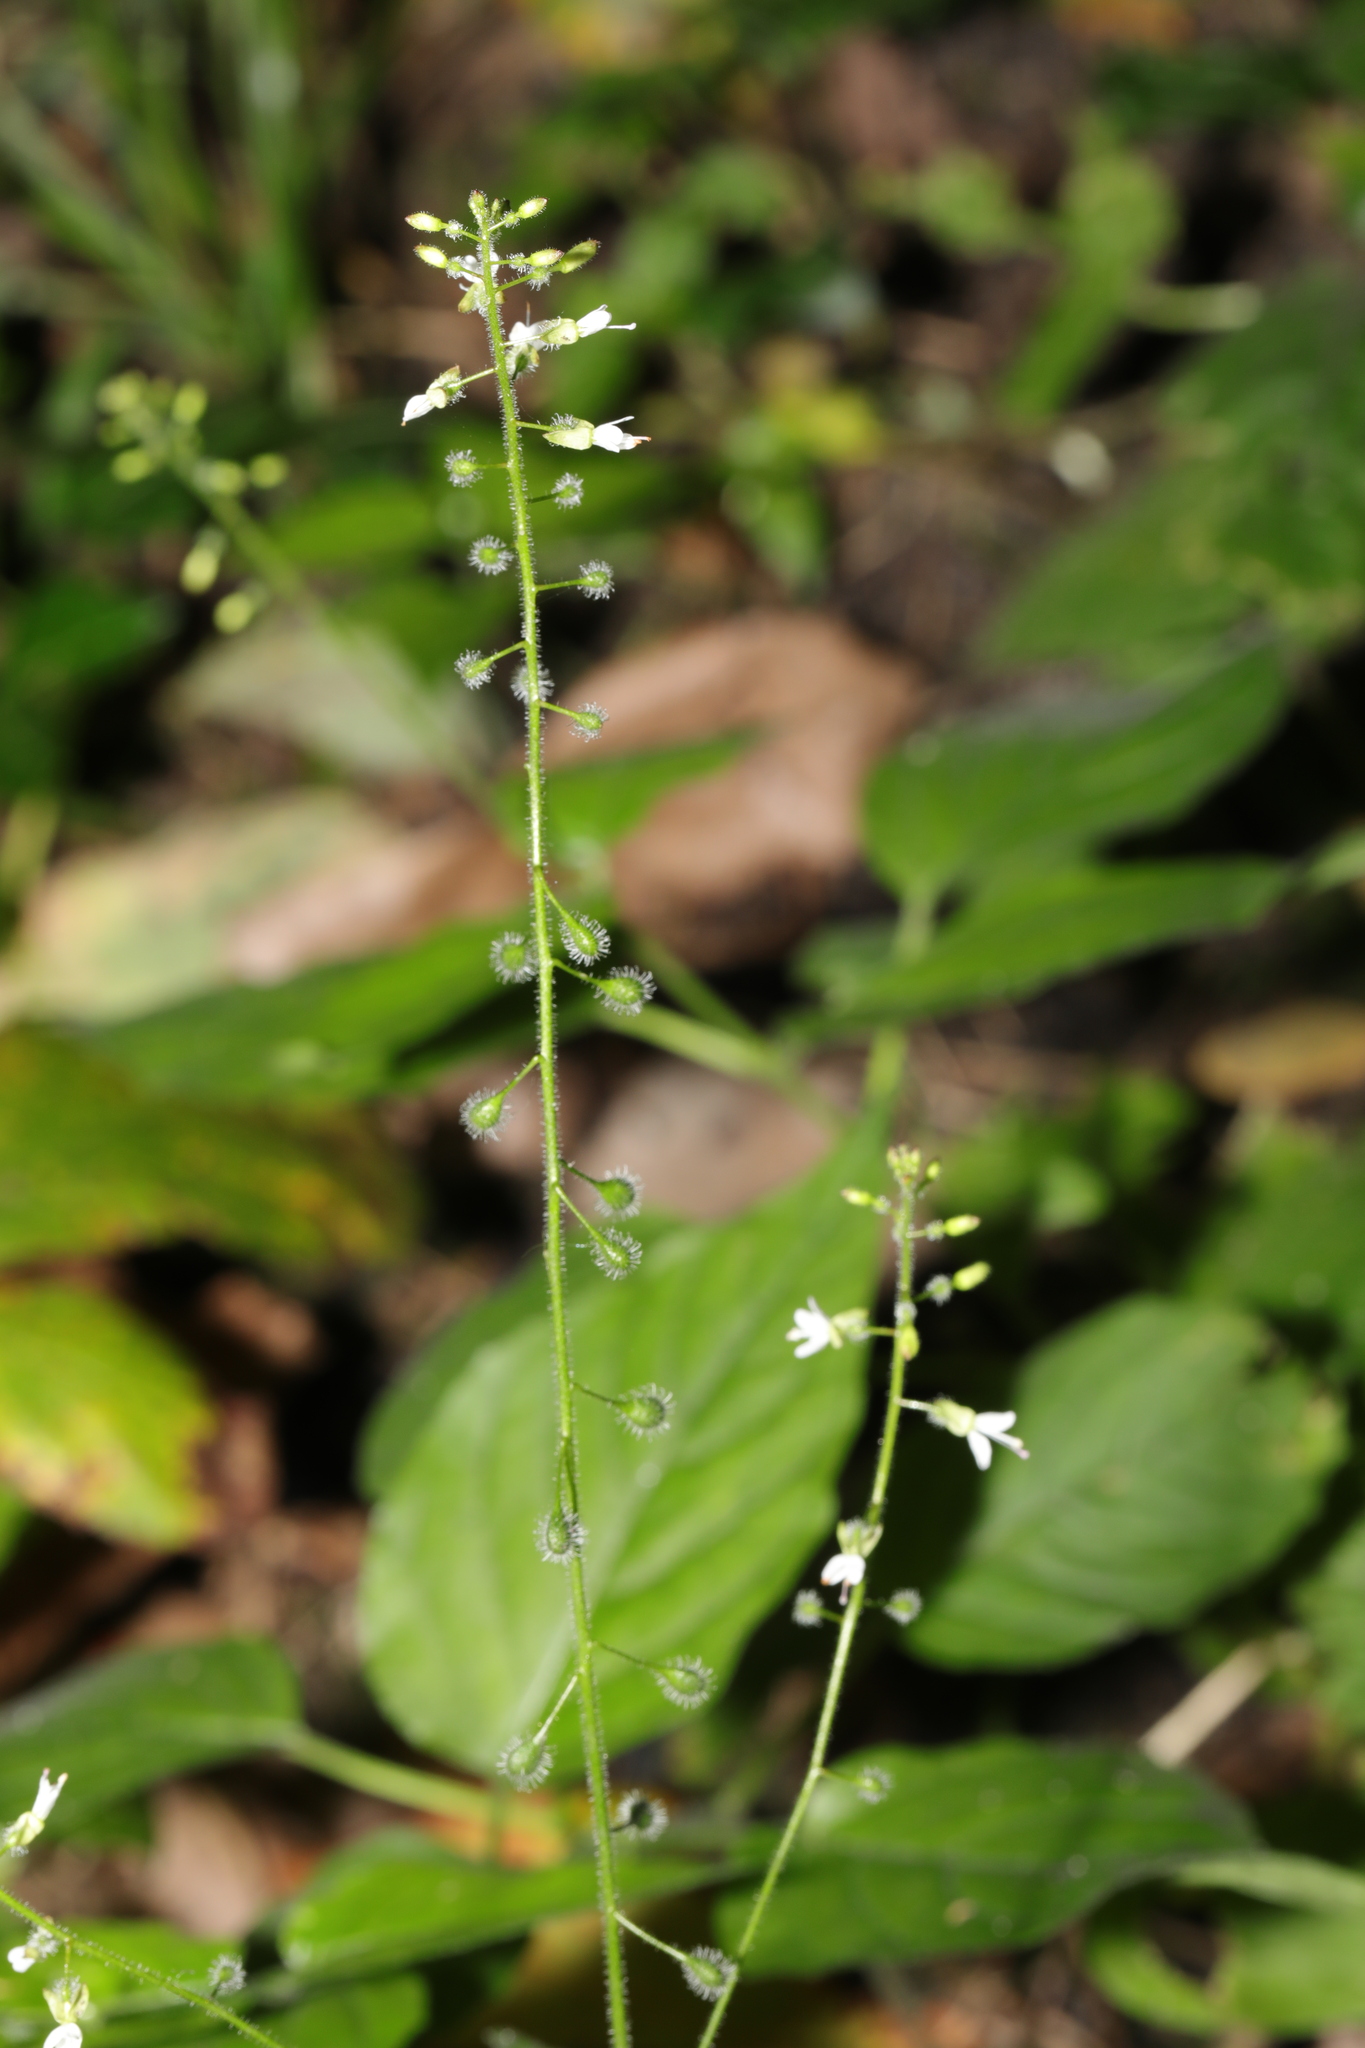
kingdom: Plantae
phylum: Tracheophyta
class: Magnoliopsida
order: Myrtales
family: Onagraceae
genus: Circaea
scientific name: Circaea lutetiana
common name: Enchanter's-nightshade
